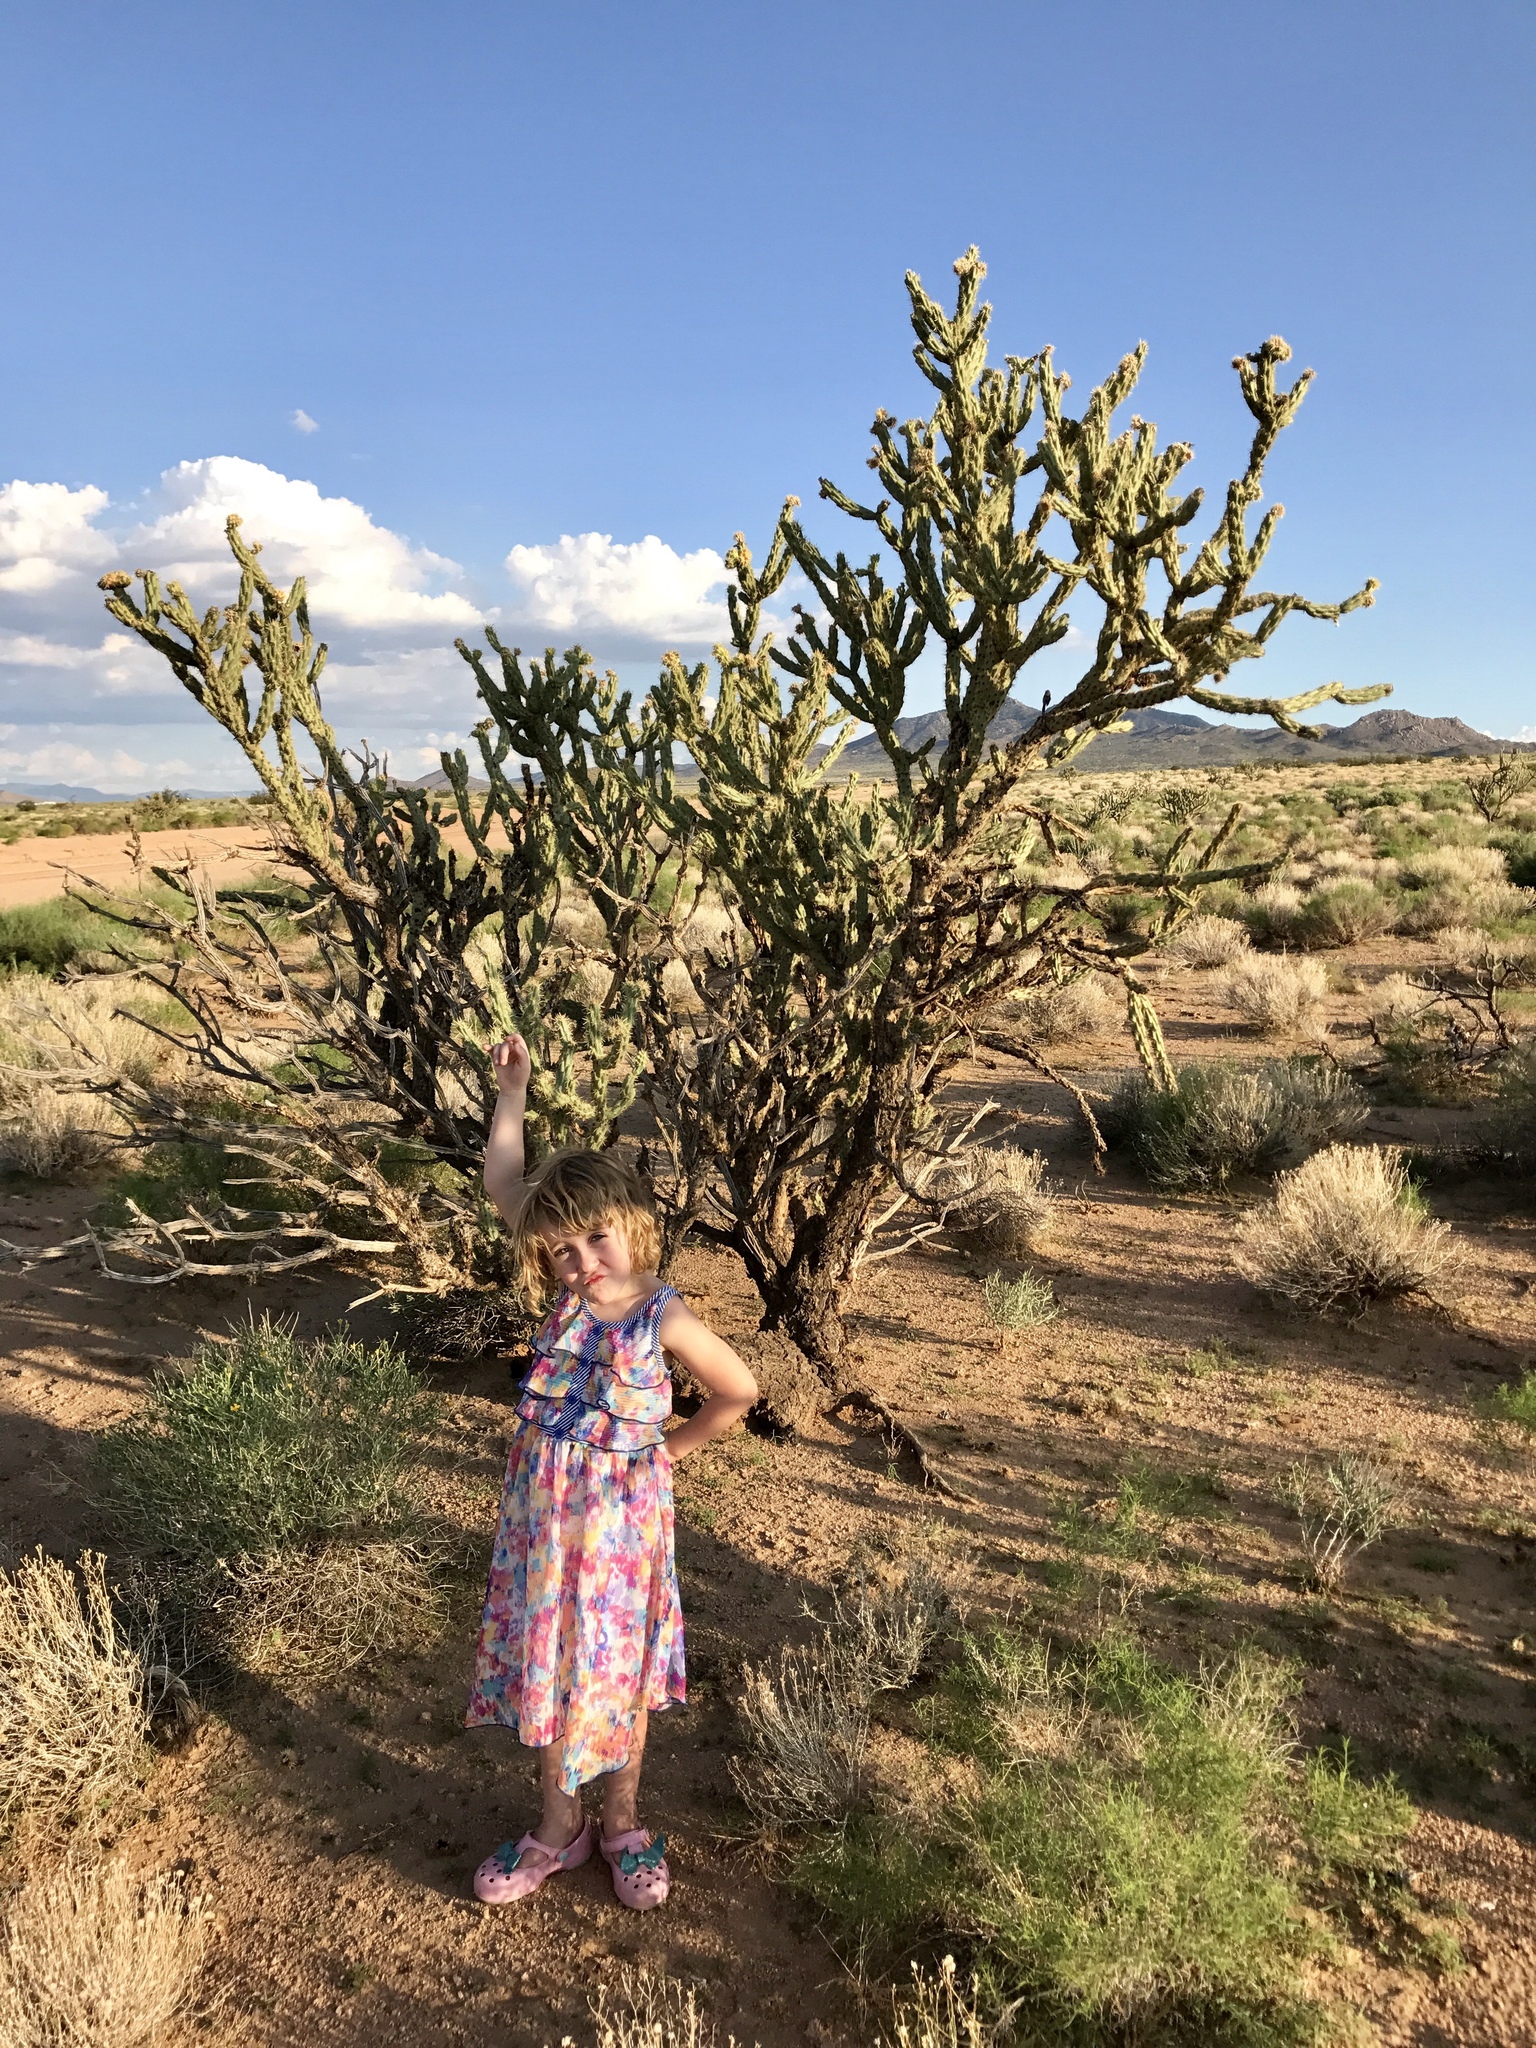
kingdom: Plantae
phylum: Tracheophyta
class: Magnoliopsida
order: Caryophyllales
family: Cactaceae
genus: Cylindropuntia
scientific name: Cylindropuntia acanthocarpa
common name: Buckhorn cholla
